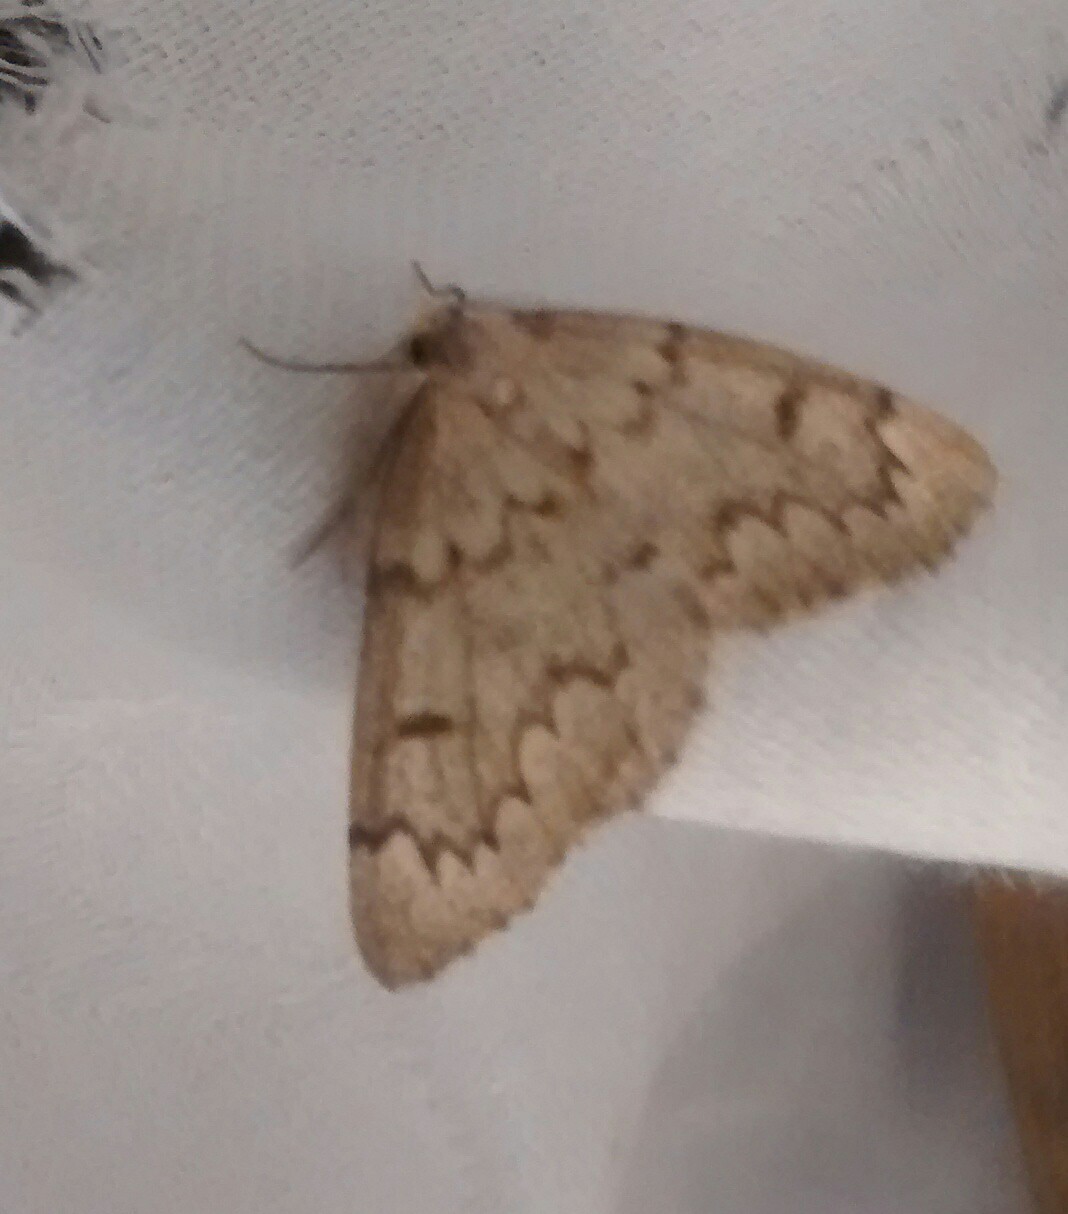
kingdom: Animalia
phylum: Arthropoda
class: Insecta
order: Lepidoptera
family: Geometridae
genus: Nepytia
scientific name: Nepytia canosaria
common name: False hemlock looper
